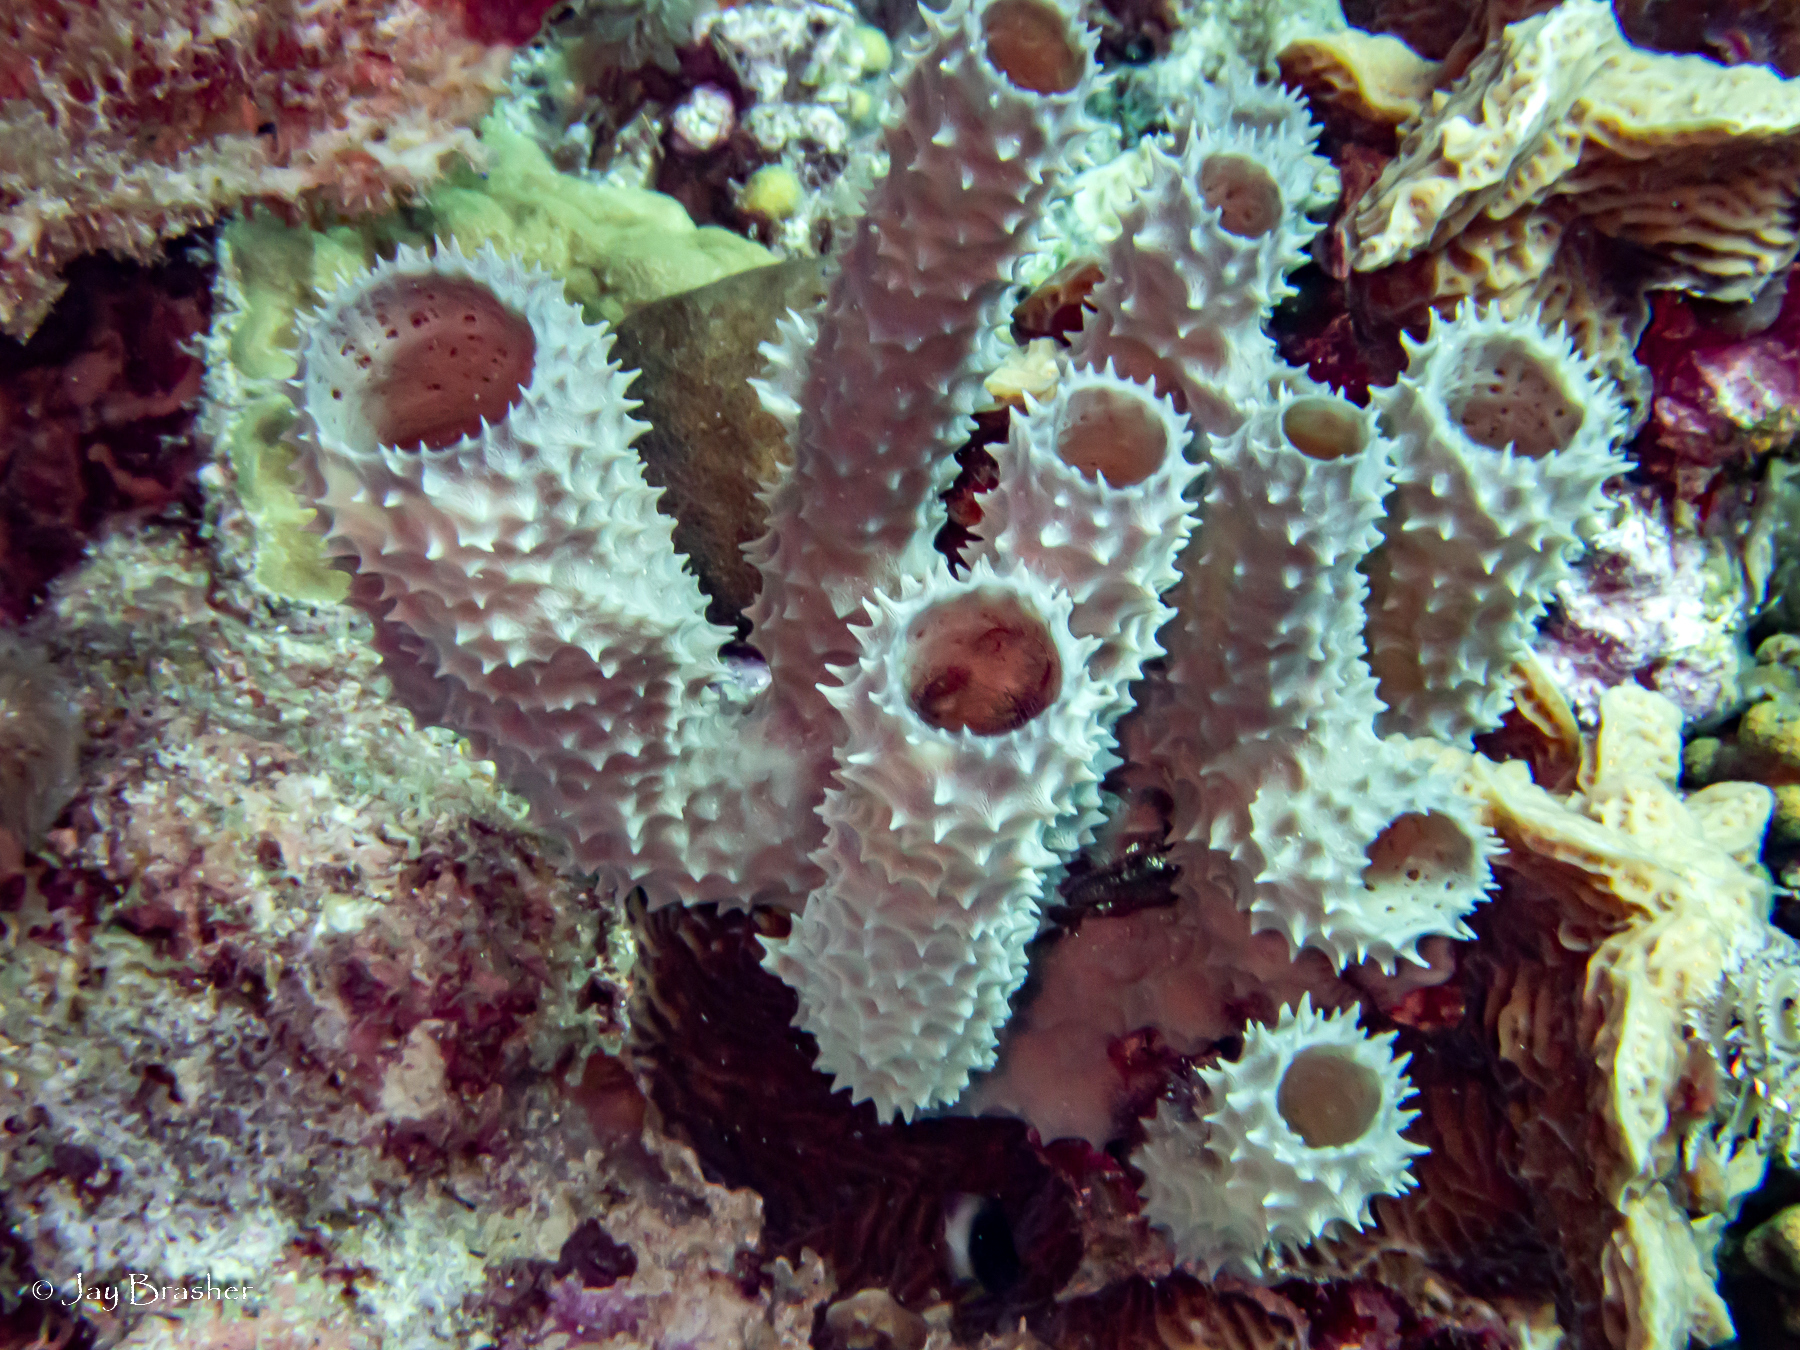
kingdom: Animalia
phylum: Porifera
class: Demospongiae
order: Haplosclerida
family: Callyspongiidae
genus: Callyspongia
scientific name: Callyspongia aculeata
